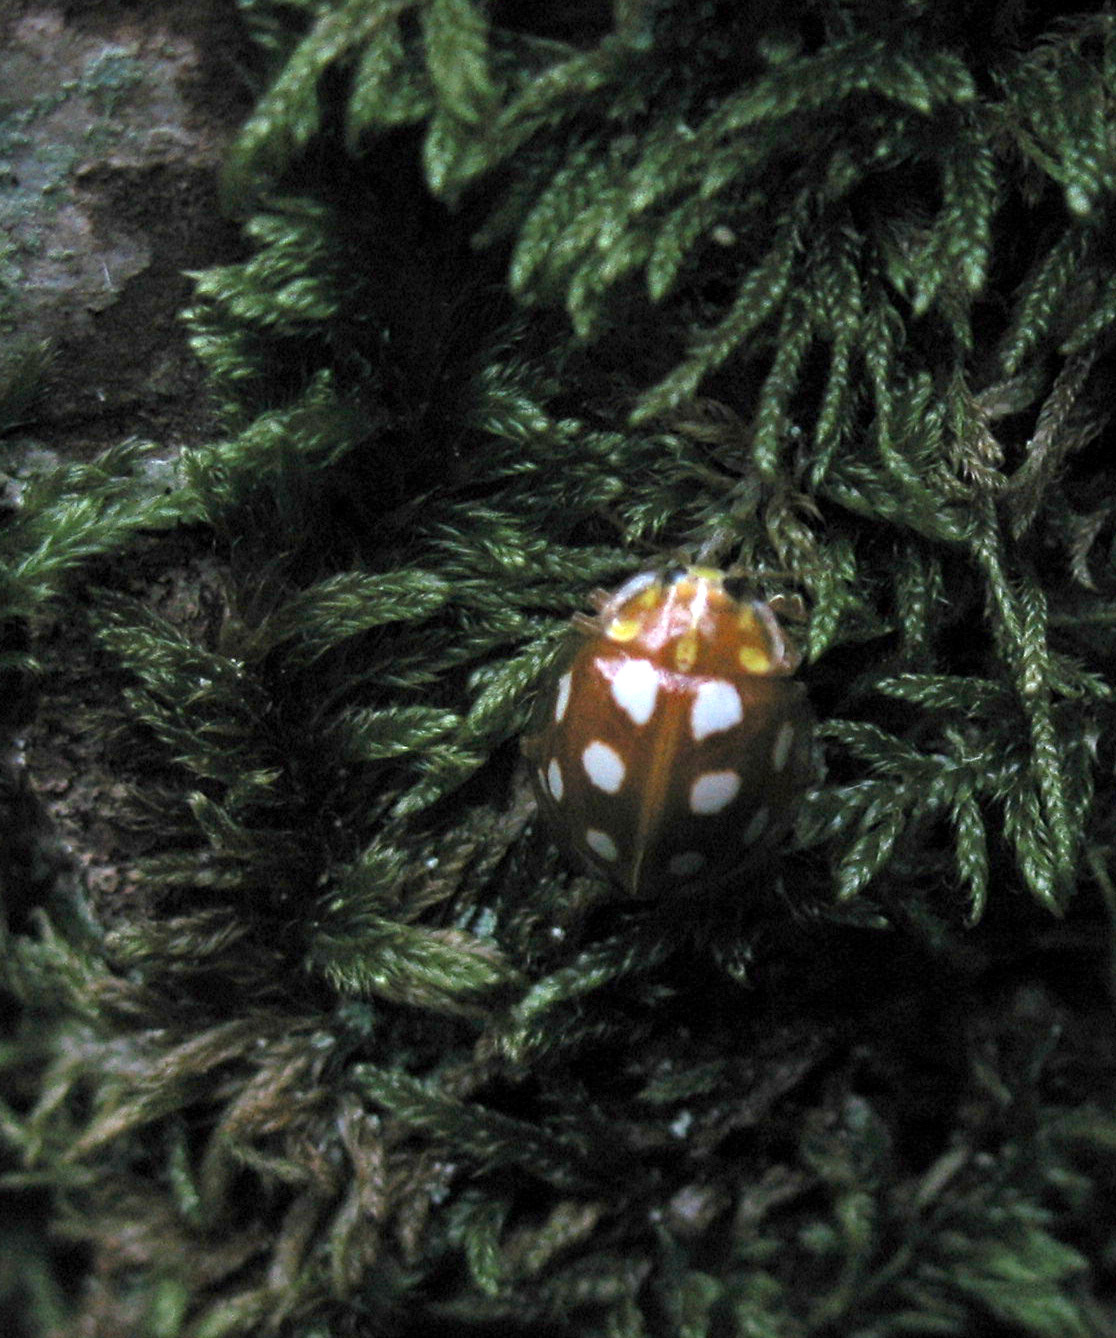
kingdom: Animalia
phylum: Arthropoda
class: Insecta
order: Coleoptera
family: Coccinellidae
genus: Halyzia
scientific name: Halyzia sedecimguttata
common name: Orange ladybird
